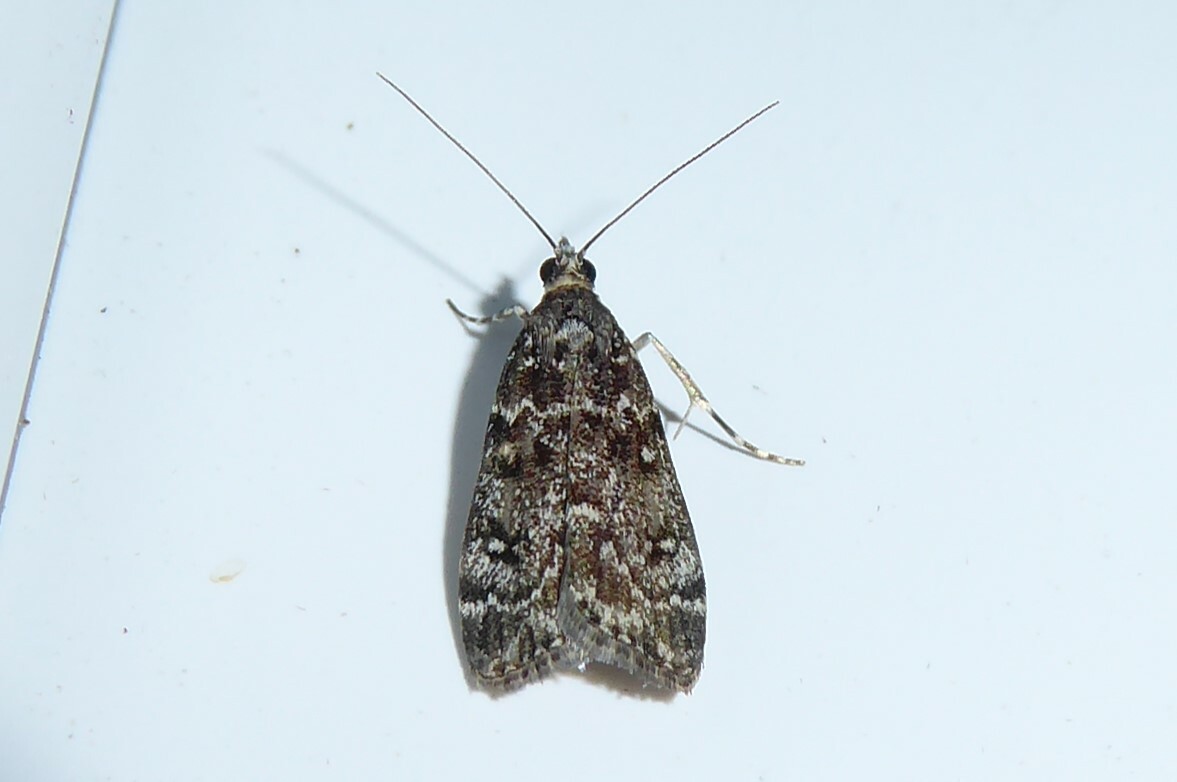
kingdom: Animalia
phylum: Arthropoda
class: Insecta
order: Lepidoptera
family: Crambidae
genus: Eudonia
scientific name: Eudonia philerga
